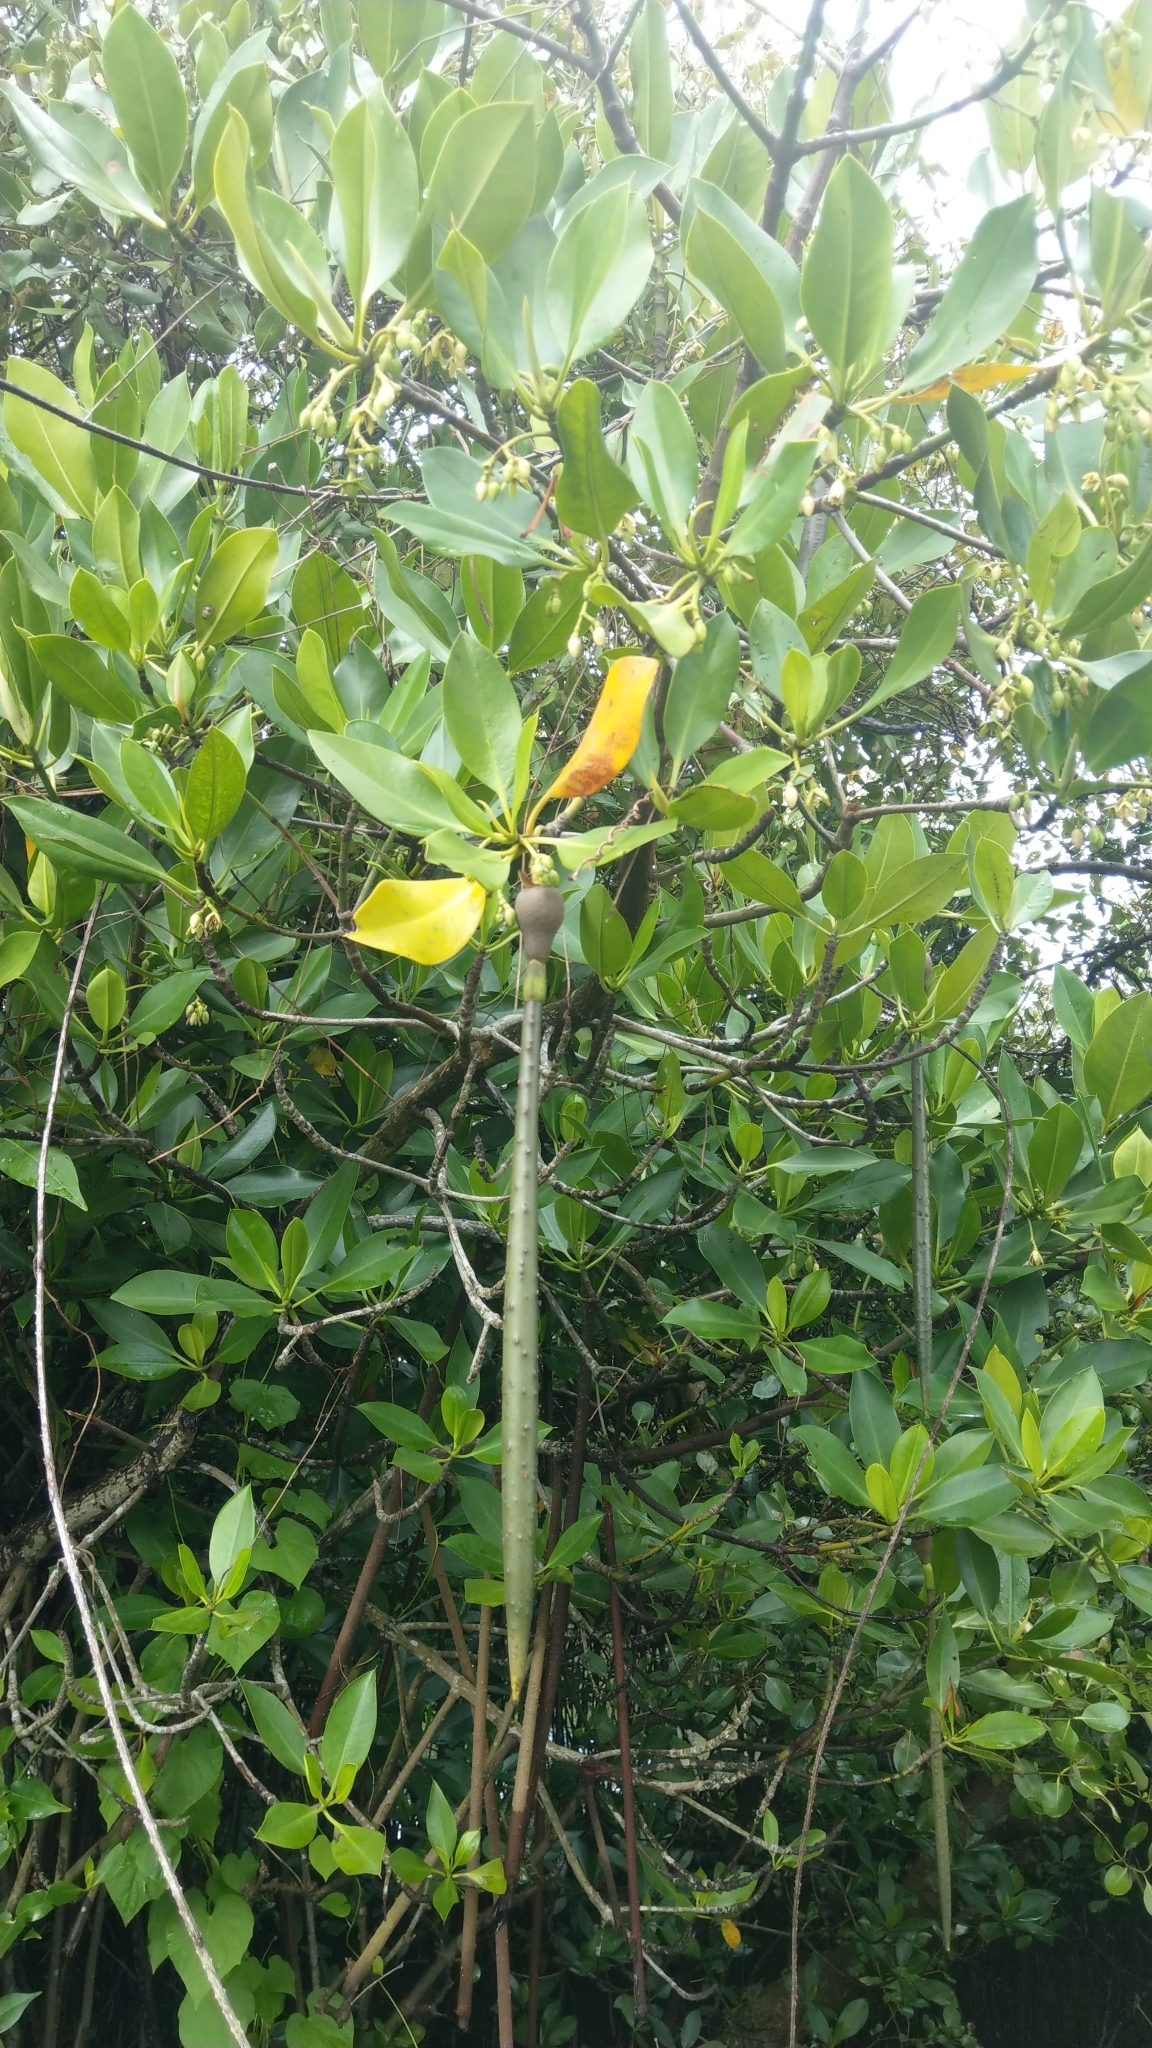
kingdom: Plantae
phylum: Tracheophyta
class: Magnoliopsida
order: Malpighiales
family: Rhizophoraceae
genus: Rhizophora
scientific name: Rhizophora stylosa
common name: Red mangrove
